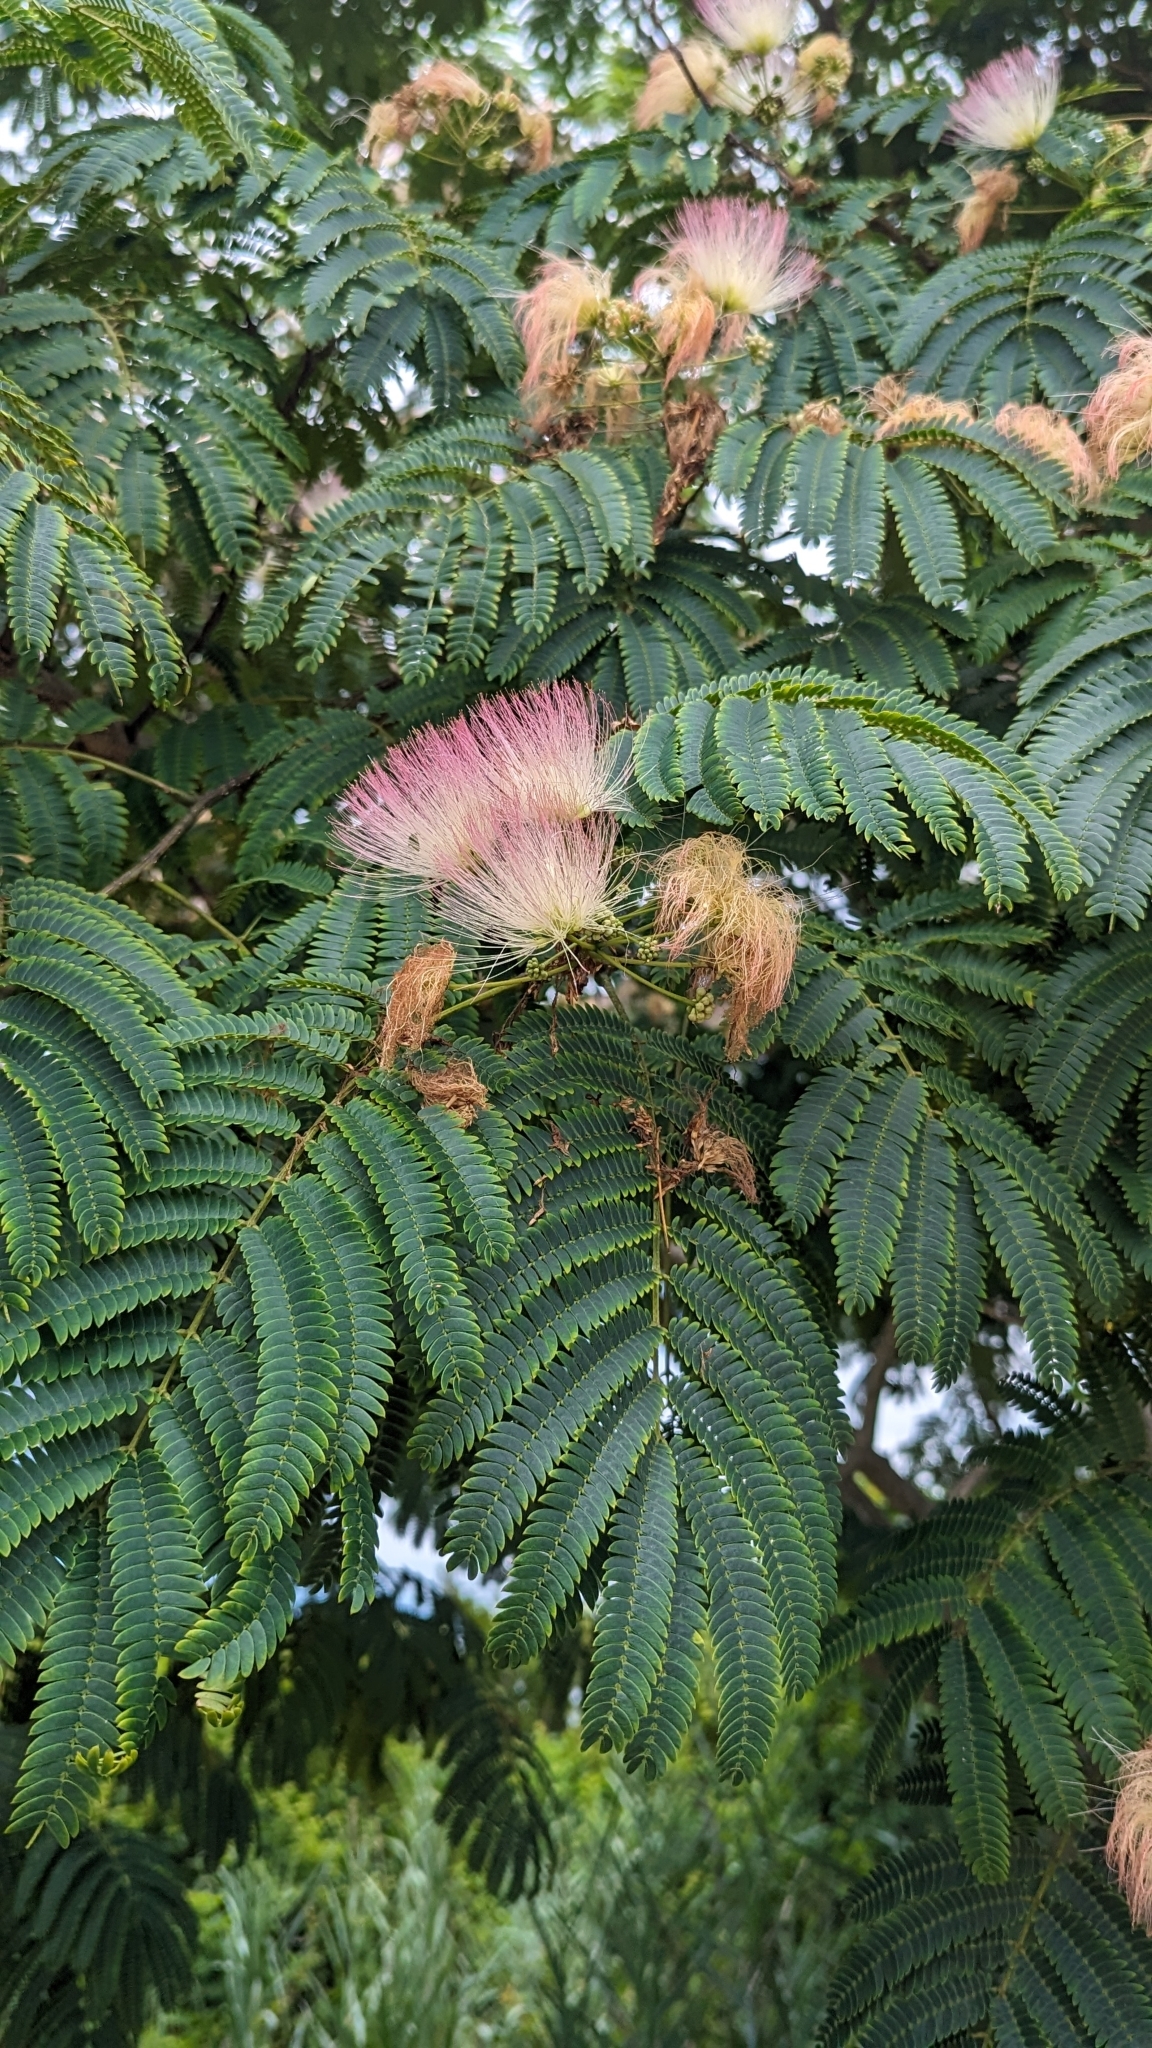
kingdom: Plantae
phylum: Tracheophyta
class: Magnoliopsida
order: Fabales
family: Fabaceae
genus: Albizia
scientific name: Albizia julibrissin
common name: Silktree
